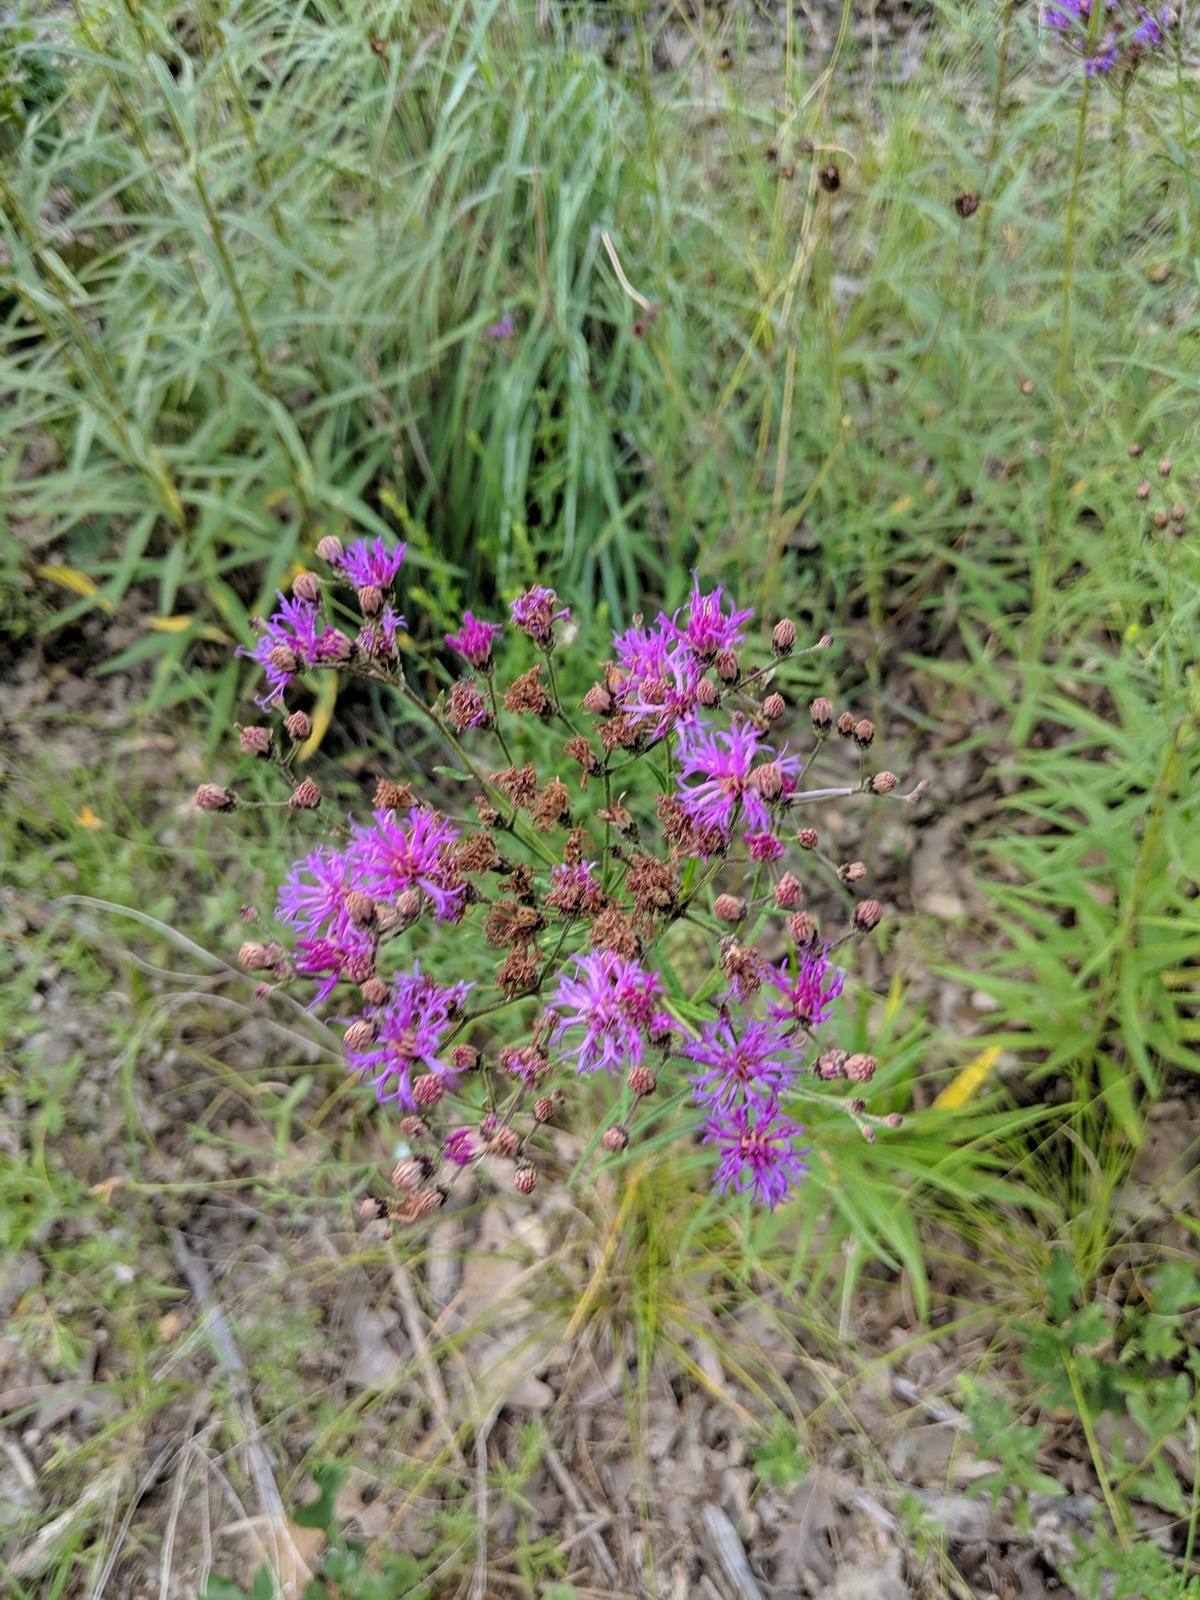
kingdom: Plantae
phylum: Tracheophyta
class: Magnoliopsida
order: Asterales
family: Asteraceae
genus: Vernonia
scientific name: Vernonia texana
